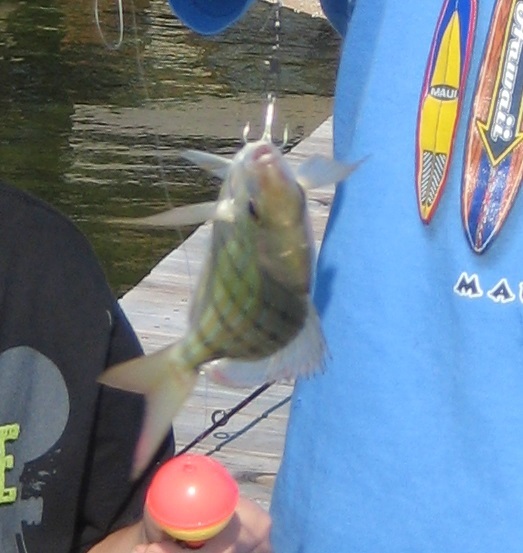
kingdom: Animalia
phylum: Chordata
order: Perciformes
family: Sparidae
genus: Lagodon
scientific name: Lagodon rhomboides
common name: Pinfish
